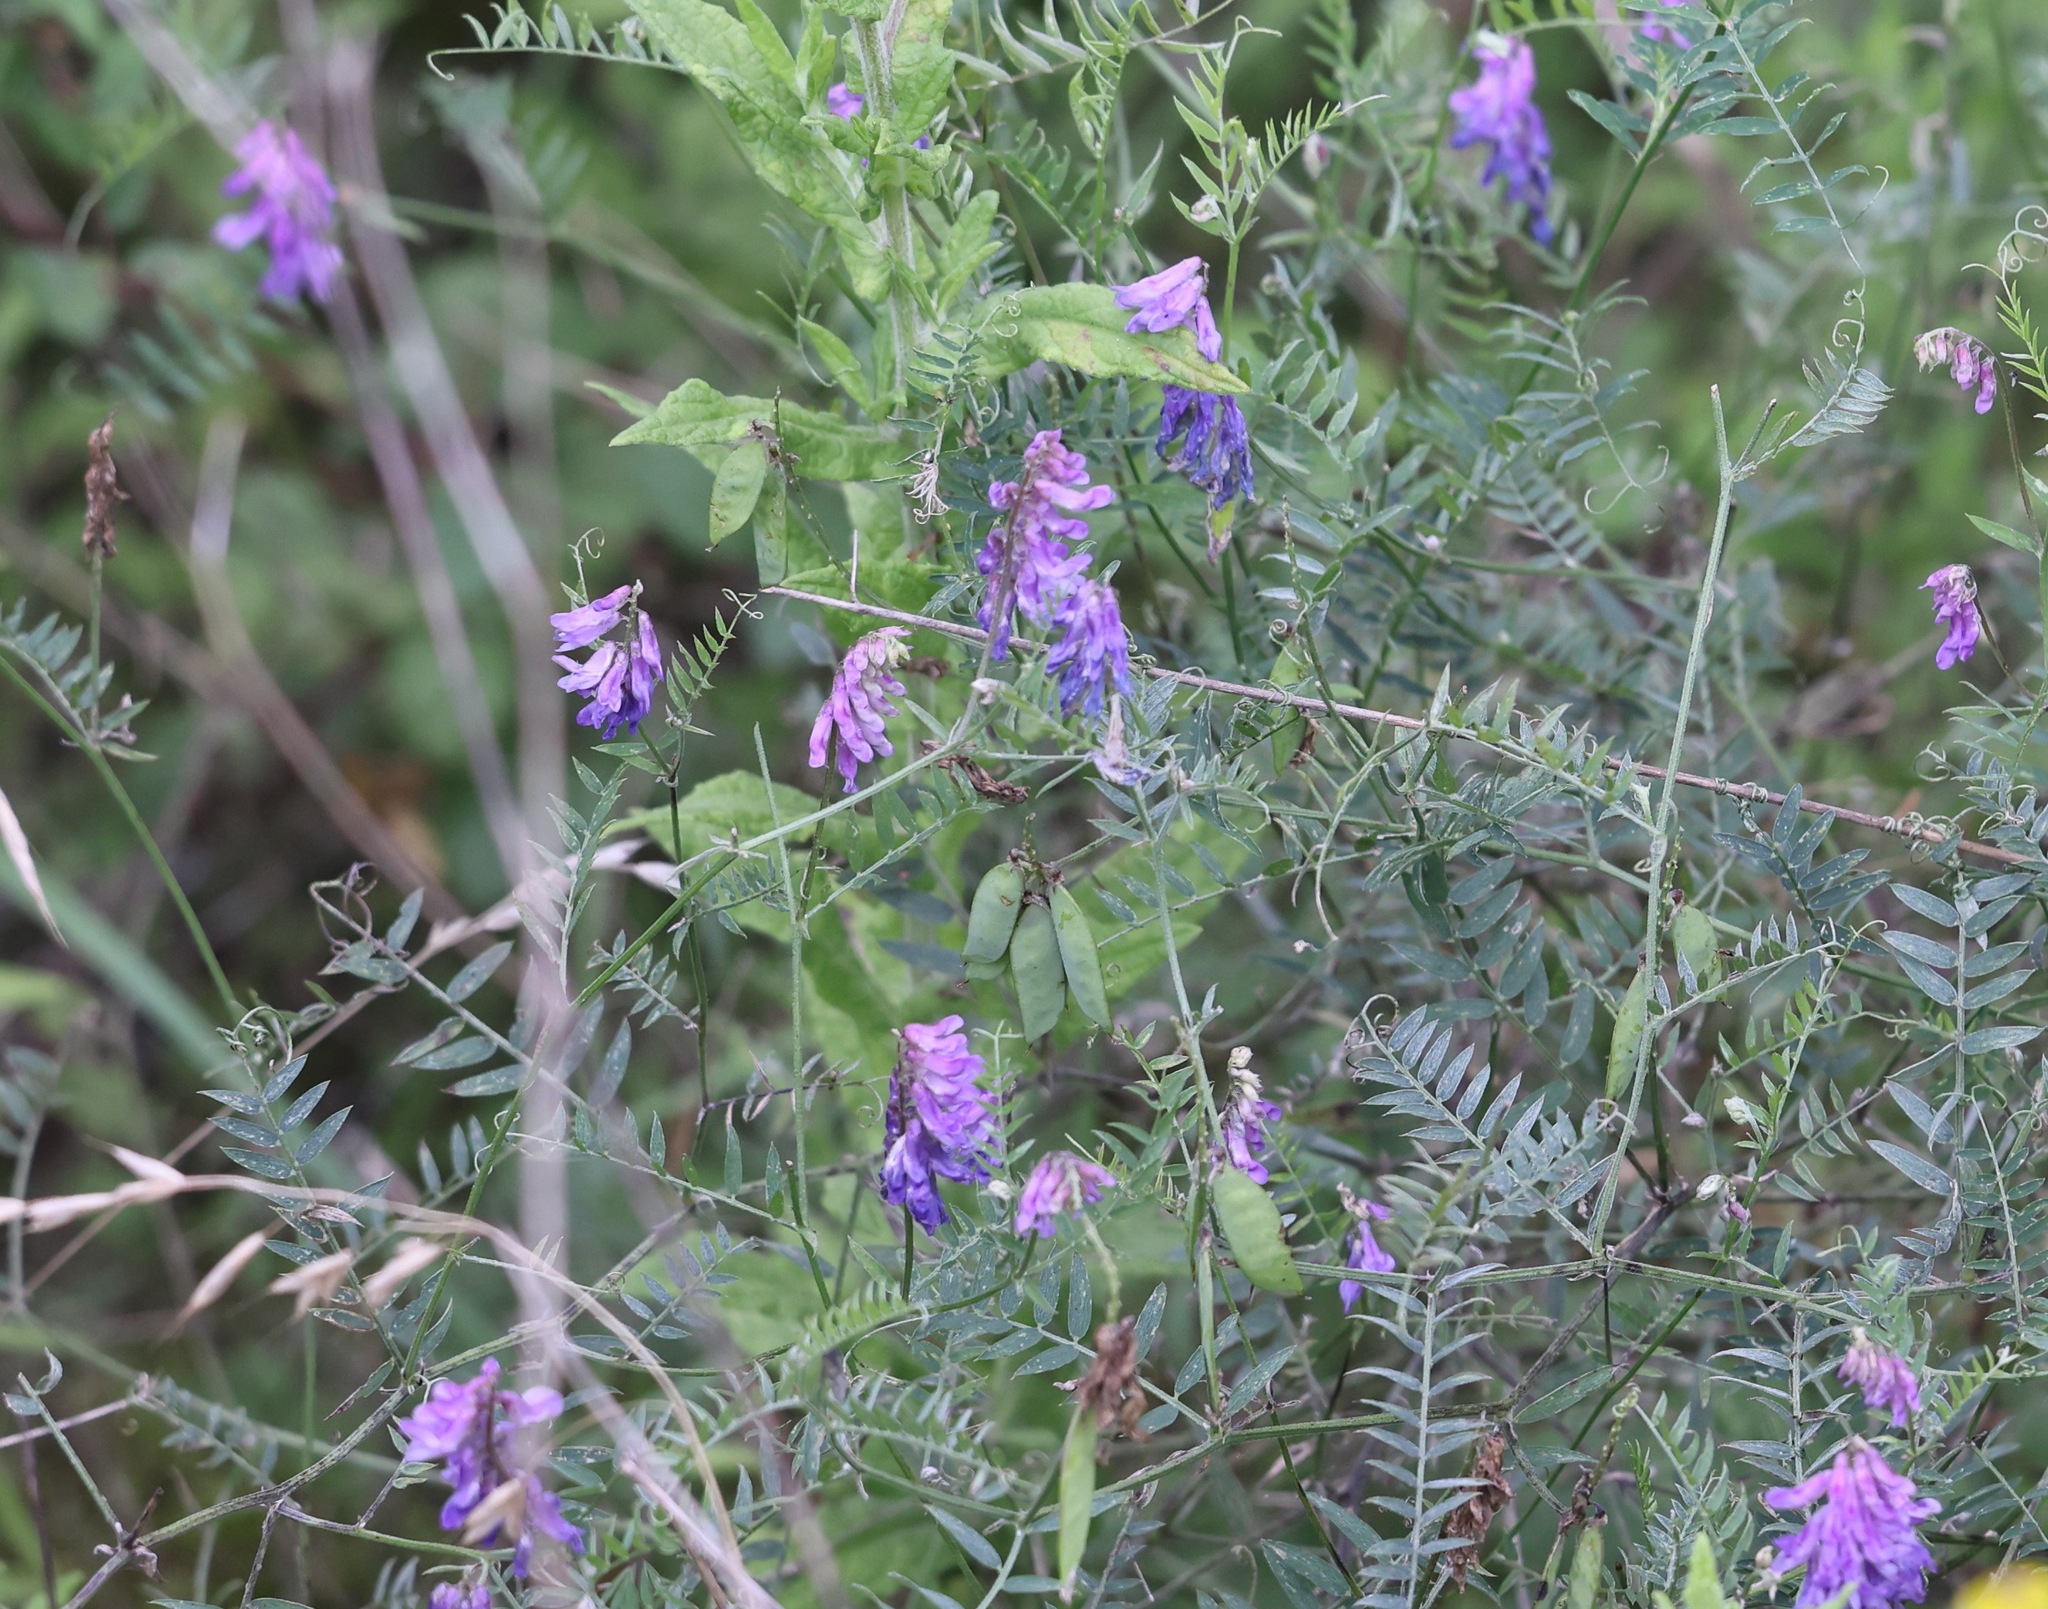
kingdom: Plantae
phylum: Tracheophyta
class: Magnoliopsida
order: Fabales
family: Fabaceae
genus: Vicia
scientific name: Vicia cracca
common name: Bird vetch
